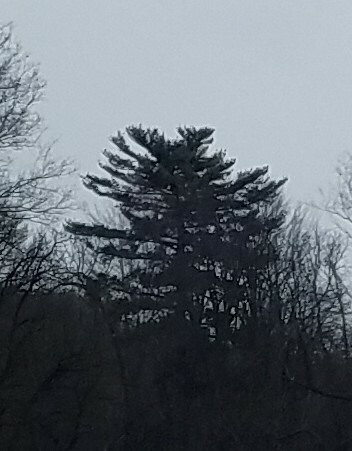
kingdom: Plantae
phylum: Tracheophyta
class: Pinopsida
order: Pinales
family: Pinaceae
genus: Pinus
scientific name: Pinus strobus
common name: Weymouth pine
